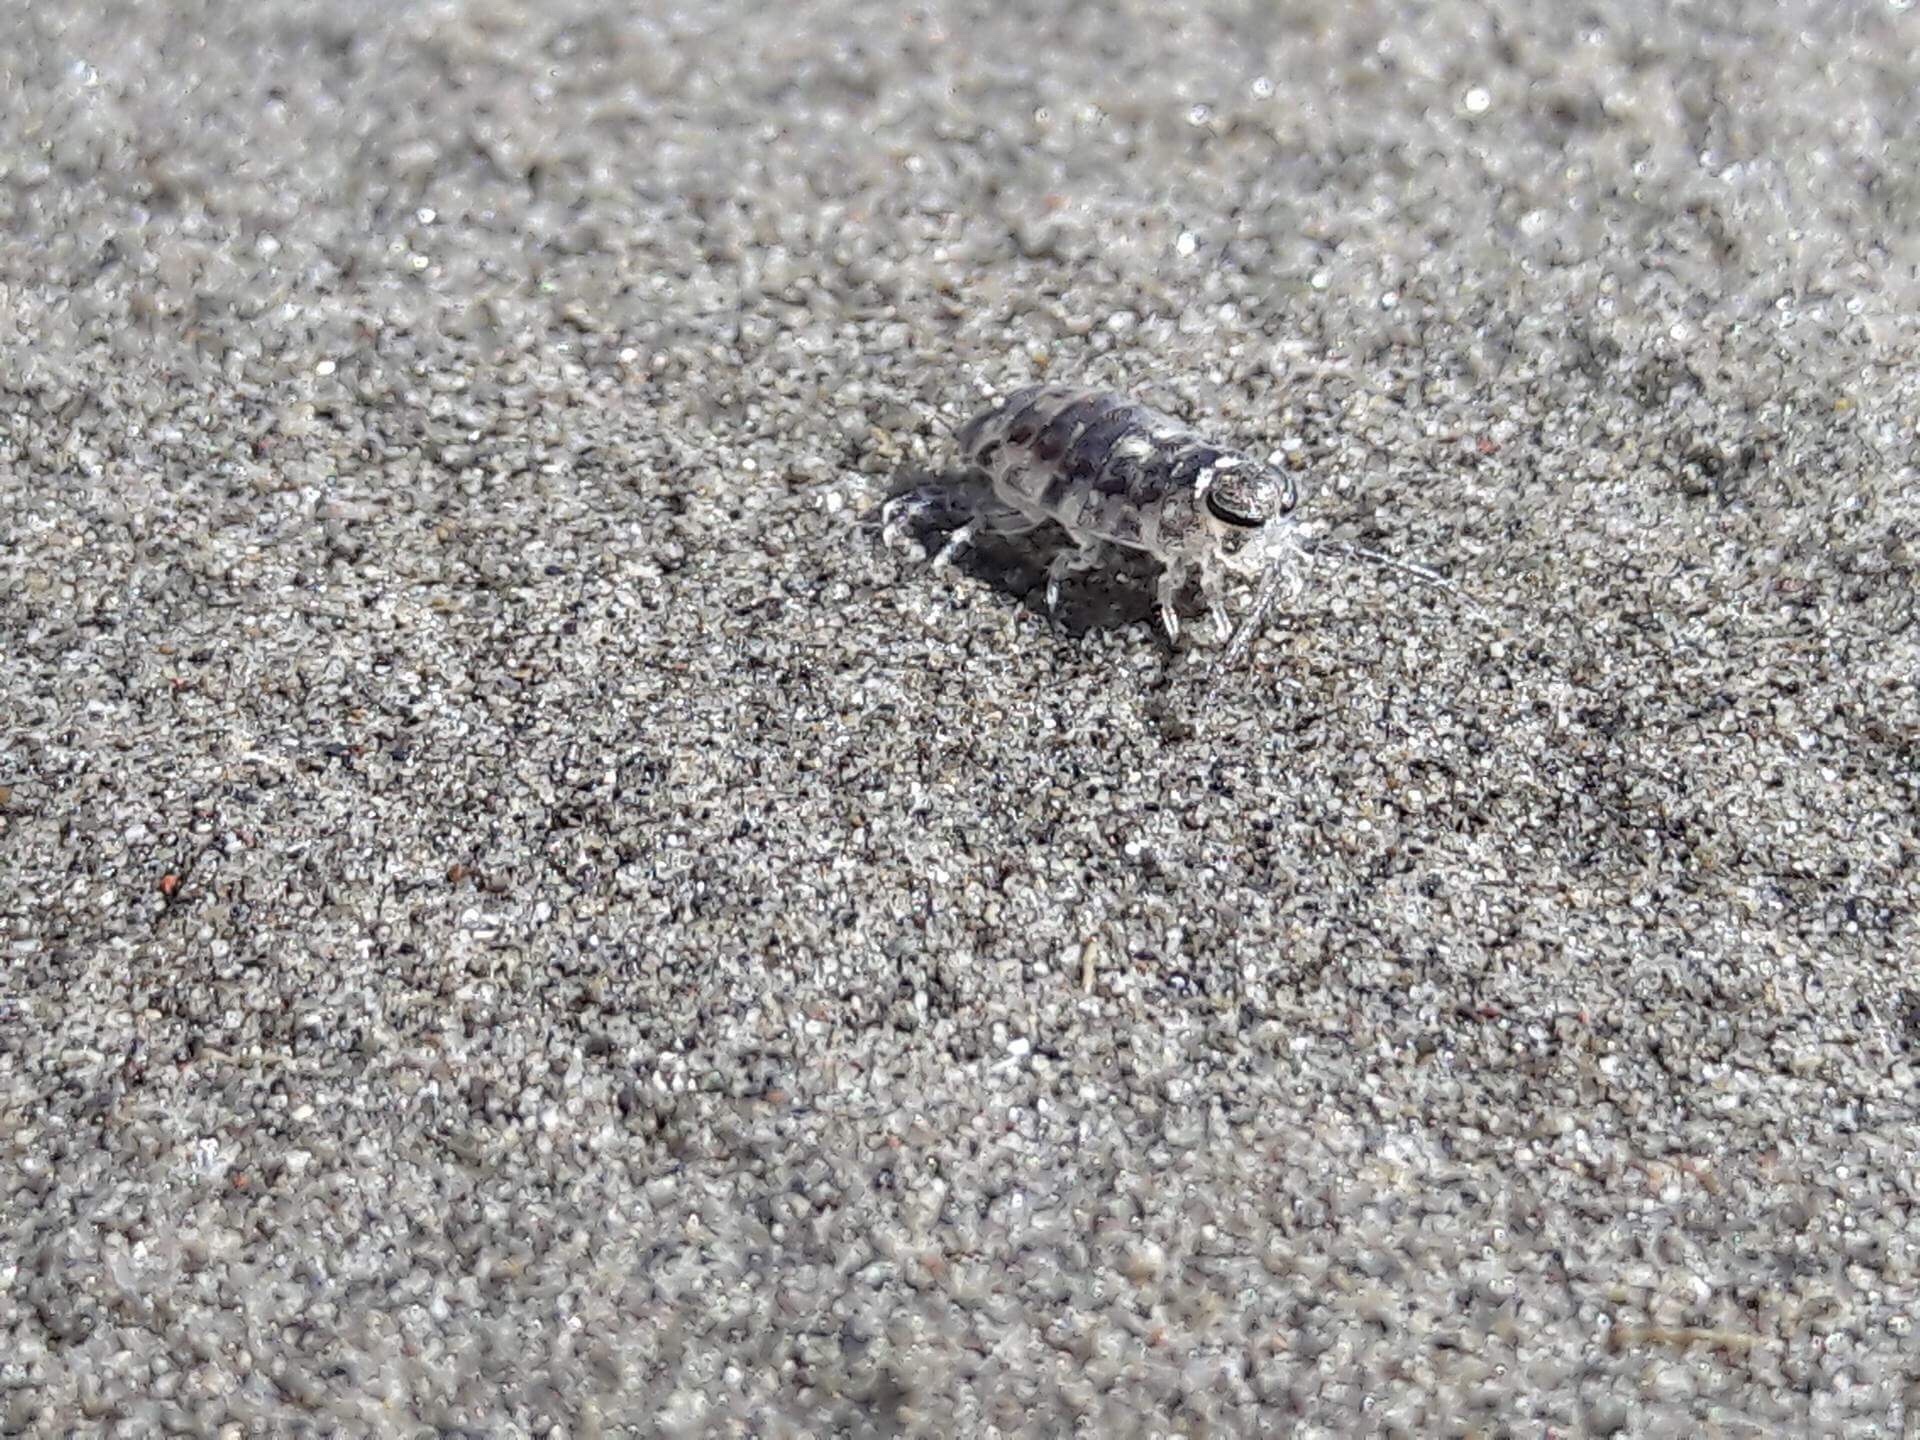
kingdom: Animalia
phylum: Arthropoda
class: Malacostraca
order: Isopoda
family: Scyphacidae
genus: Scyphax
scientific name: Scyphax ornatus
